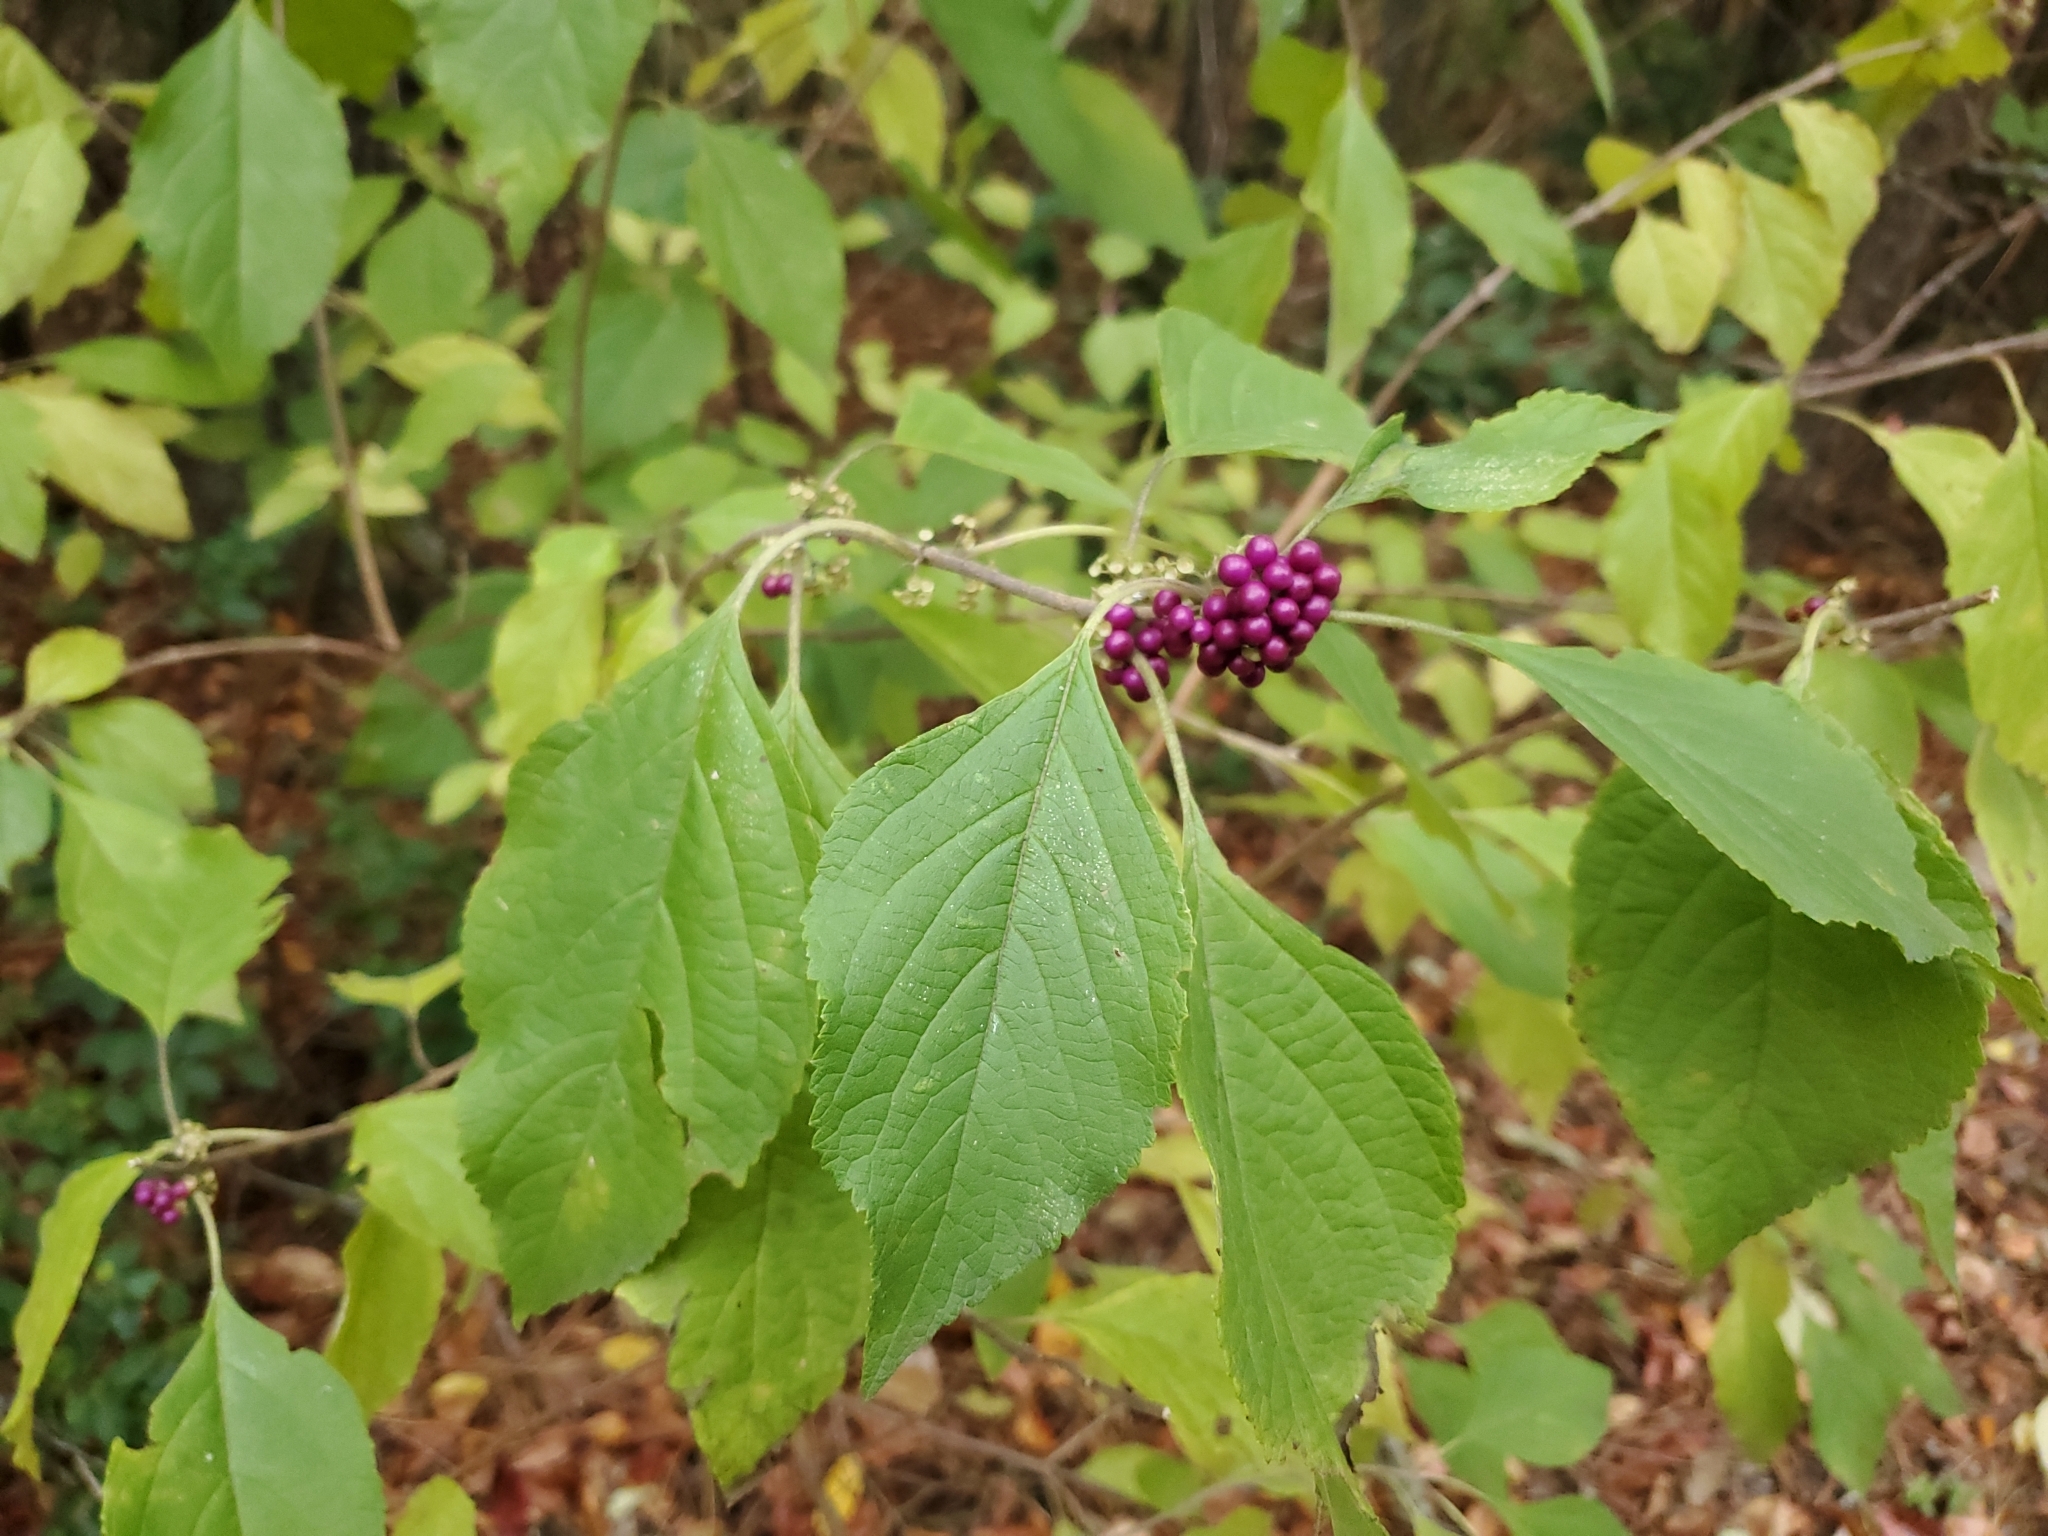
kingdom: Plantae
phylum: Tracheophyta
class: Magnoliopsida
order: Lamiales
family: Lamiaceae
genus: Callicarpa
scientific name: Callicarpa americana
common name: American beautyberry
